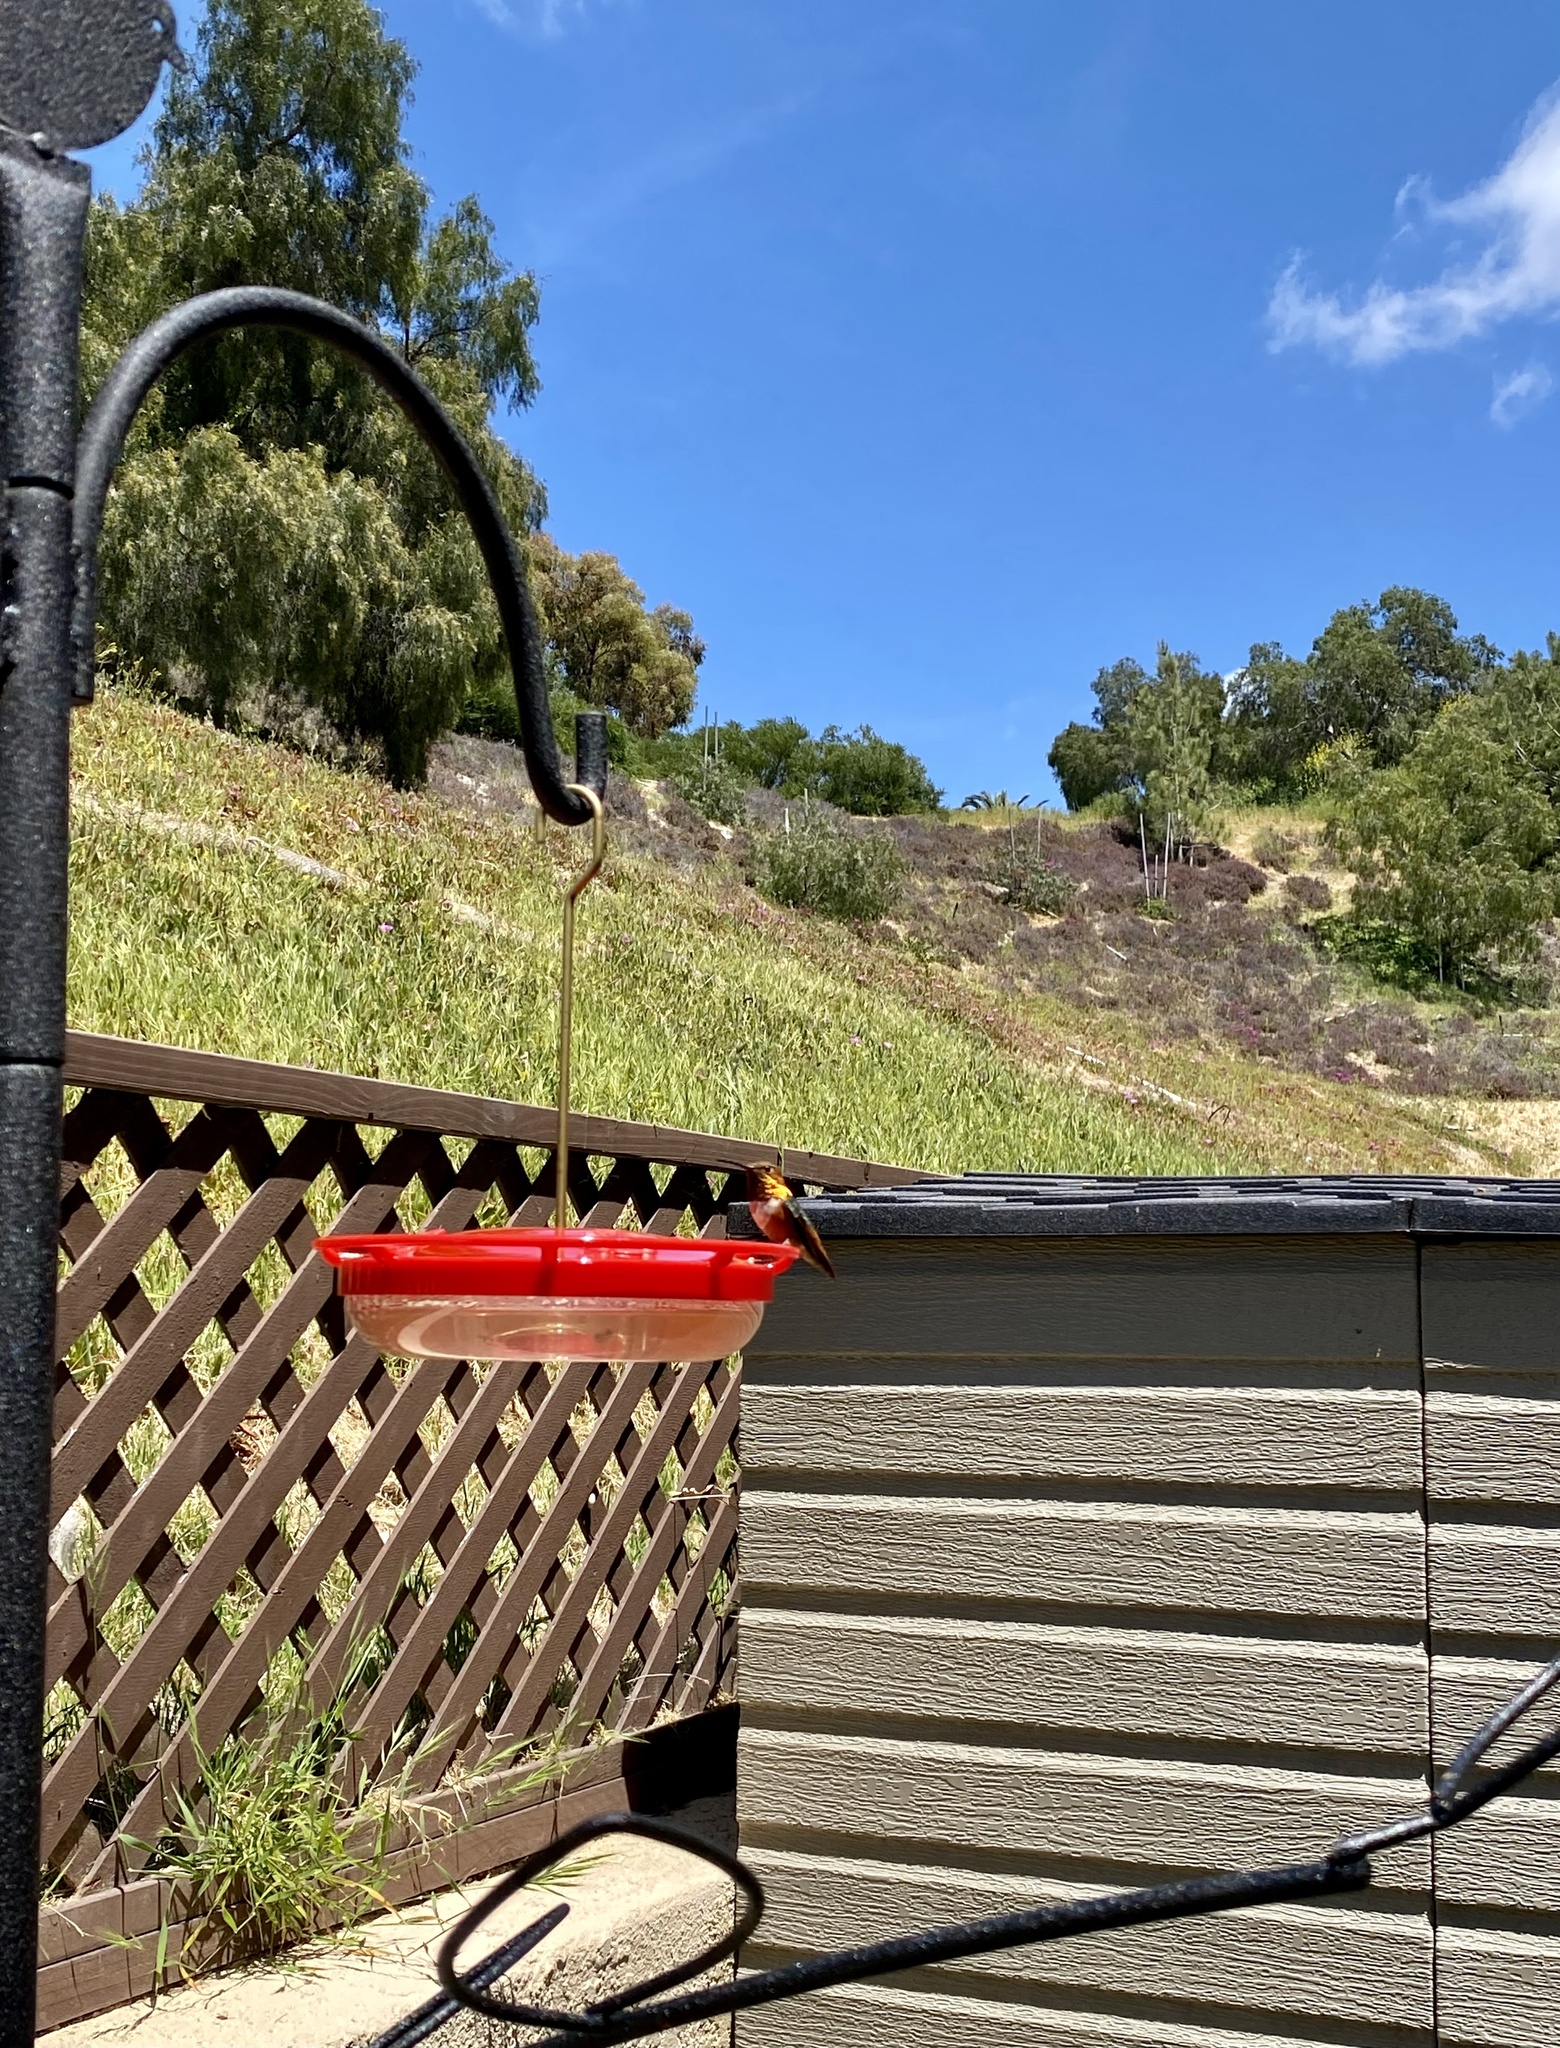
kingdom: Animalia
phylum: Chordata
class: Aves
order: Apodiformes
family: Trochilidae
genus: Selasphorus
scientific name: Selasphorus sasin
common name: Allen's hummingbird
